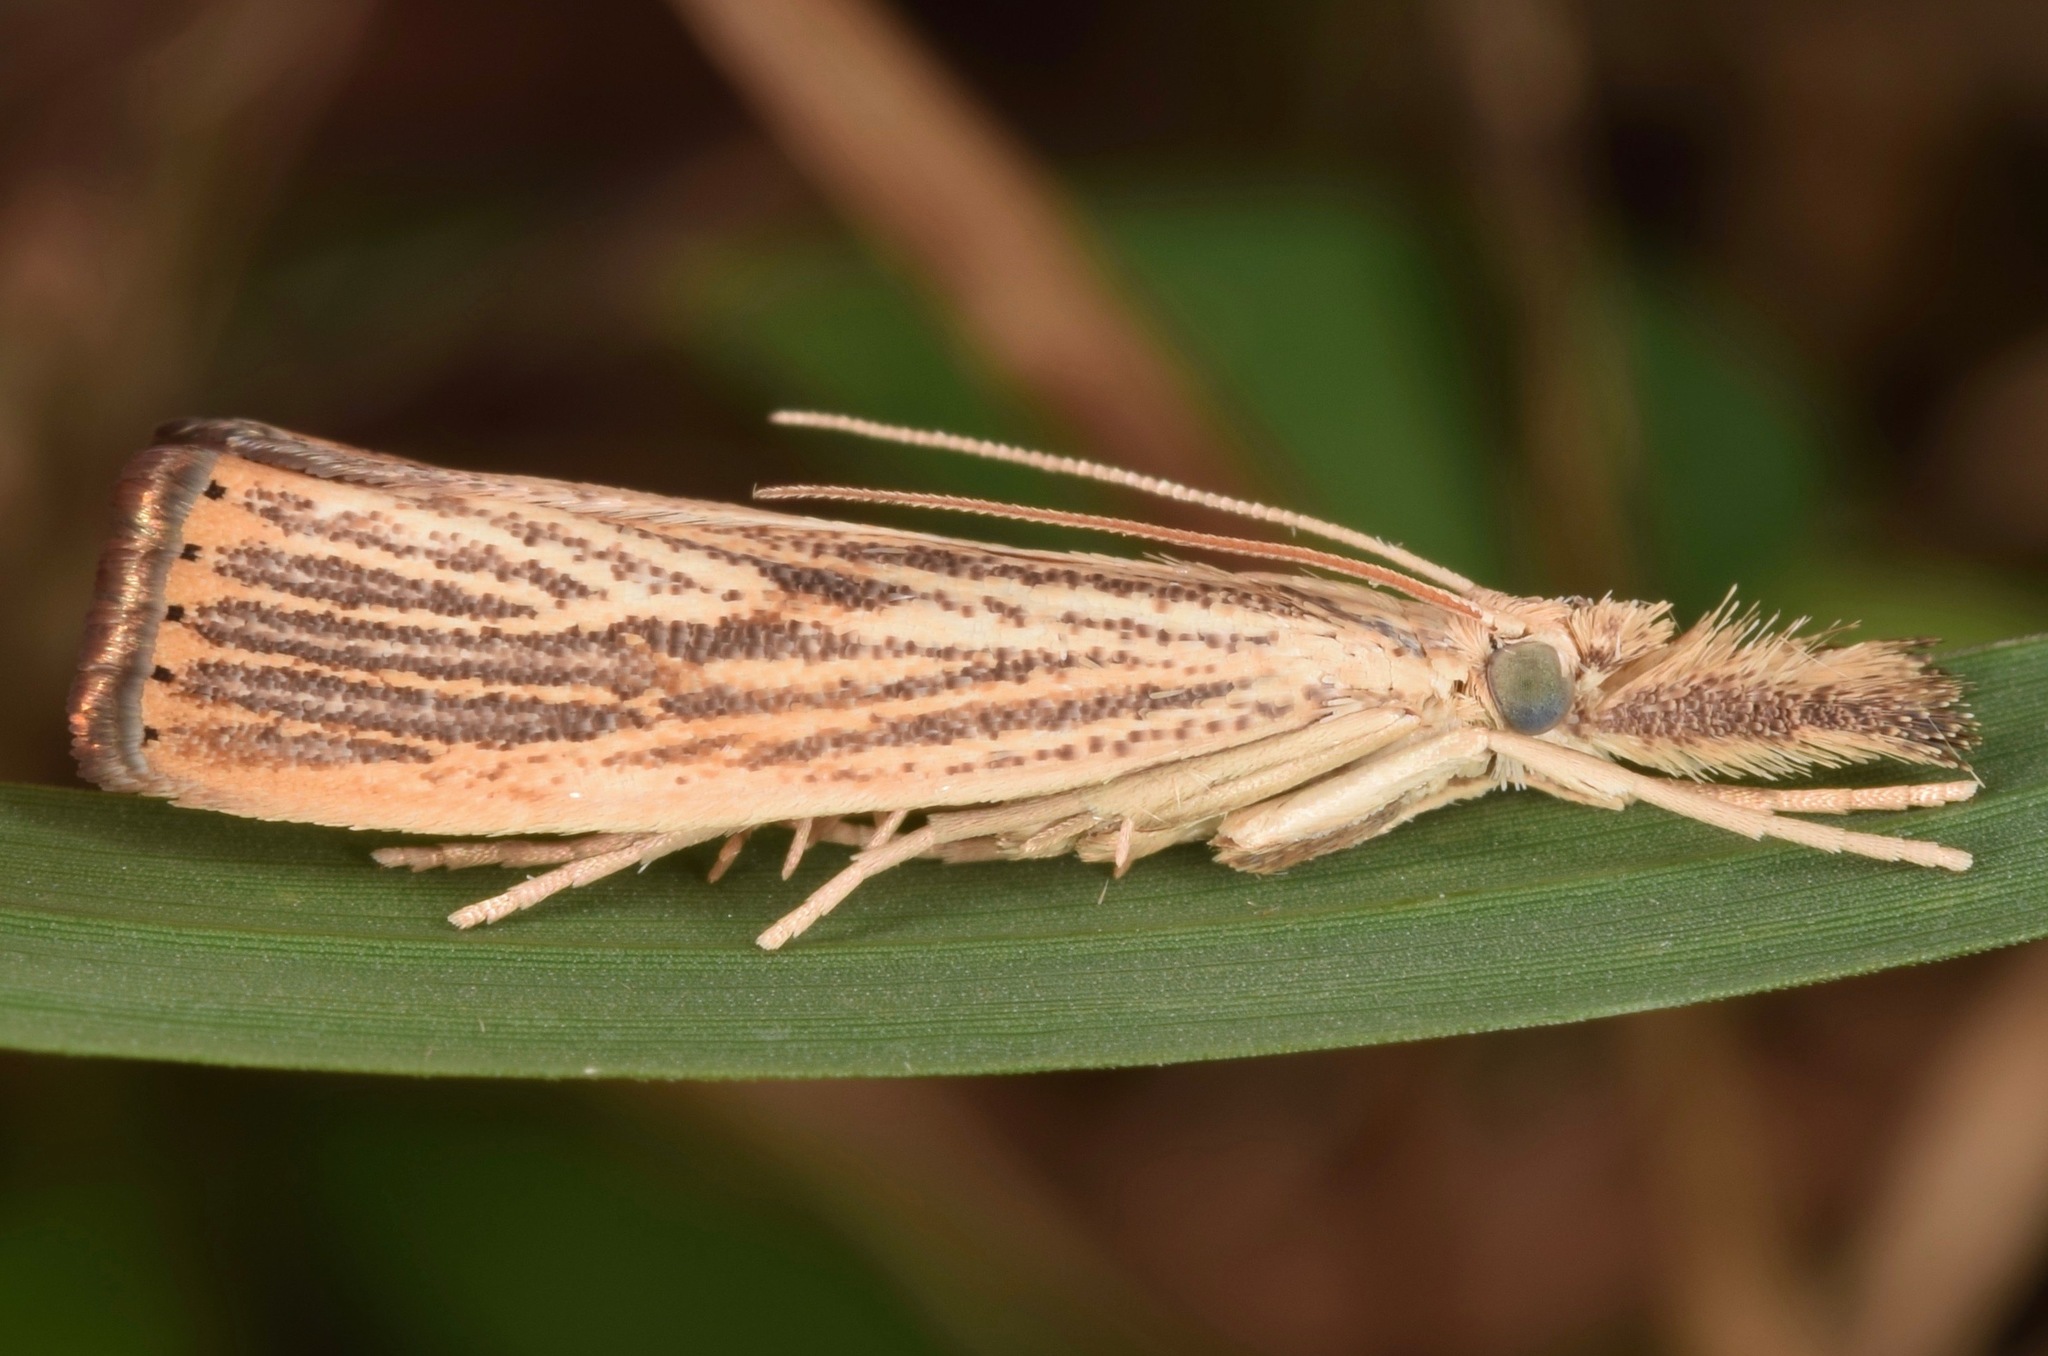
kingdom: Animalia
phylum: Arthropoda
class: Insecta
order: Lepidoptera
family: Crambidae
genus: Agriphila
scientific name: Agriphila vulgivagellus
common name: Vagabond crambus moth
